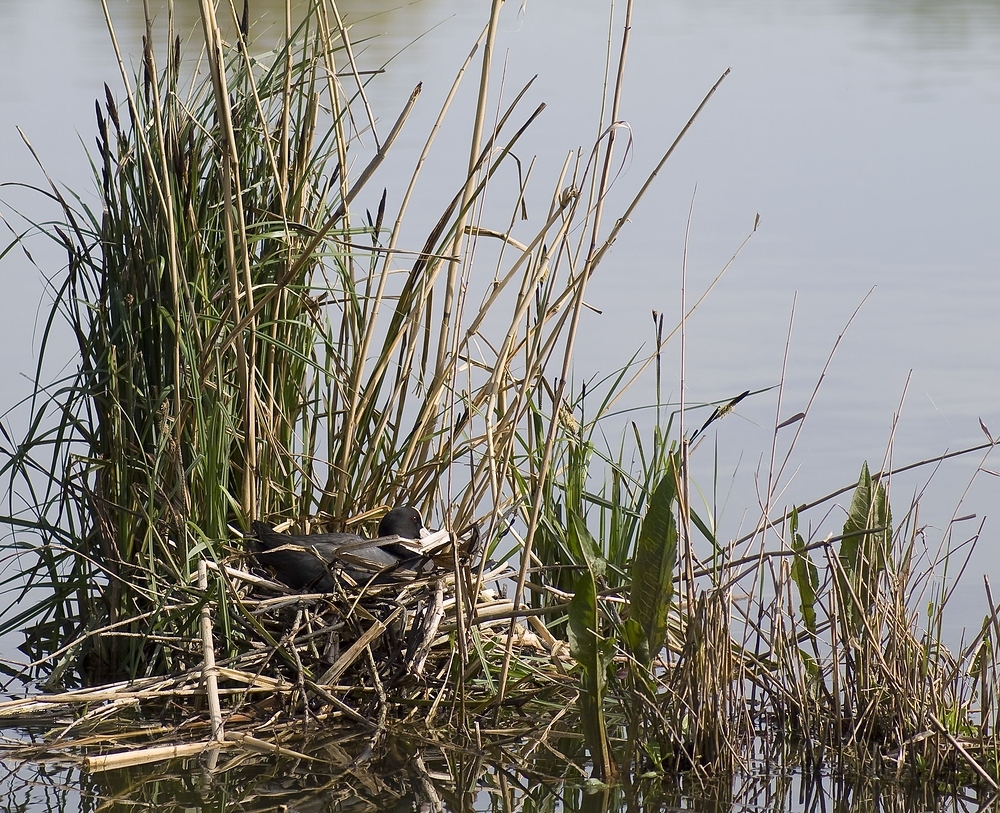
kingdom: Animalia
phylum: Chordata
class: Aves
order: Gruiformes
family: Rallidae
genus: Fulica
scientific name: Fulica atra
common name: Eurasian coot
